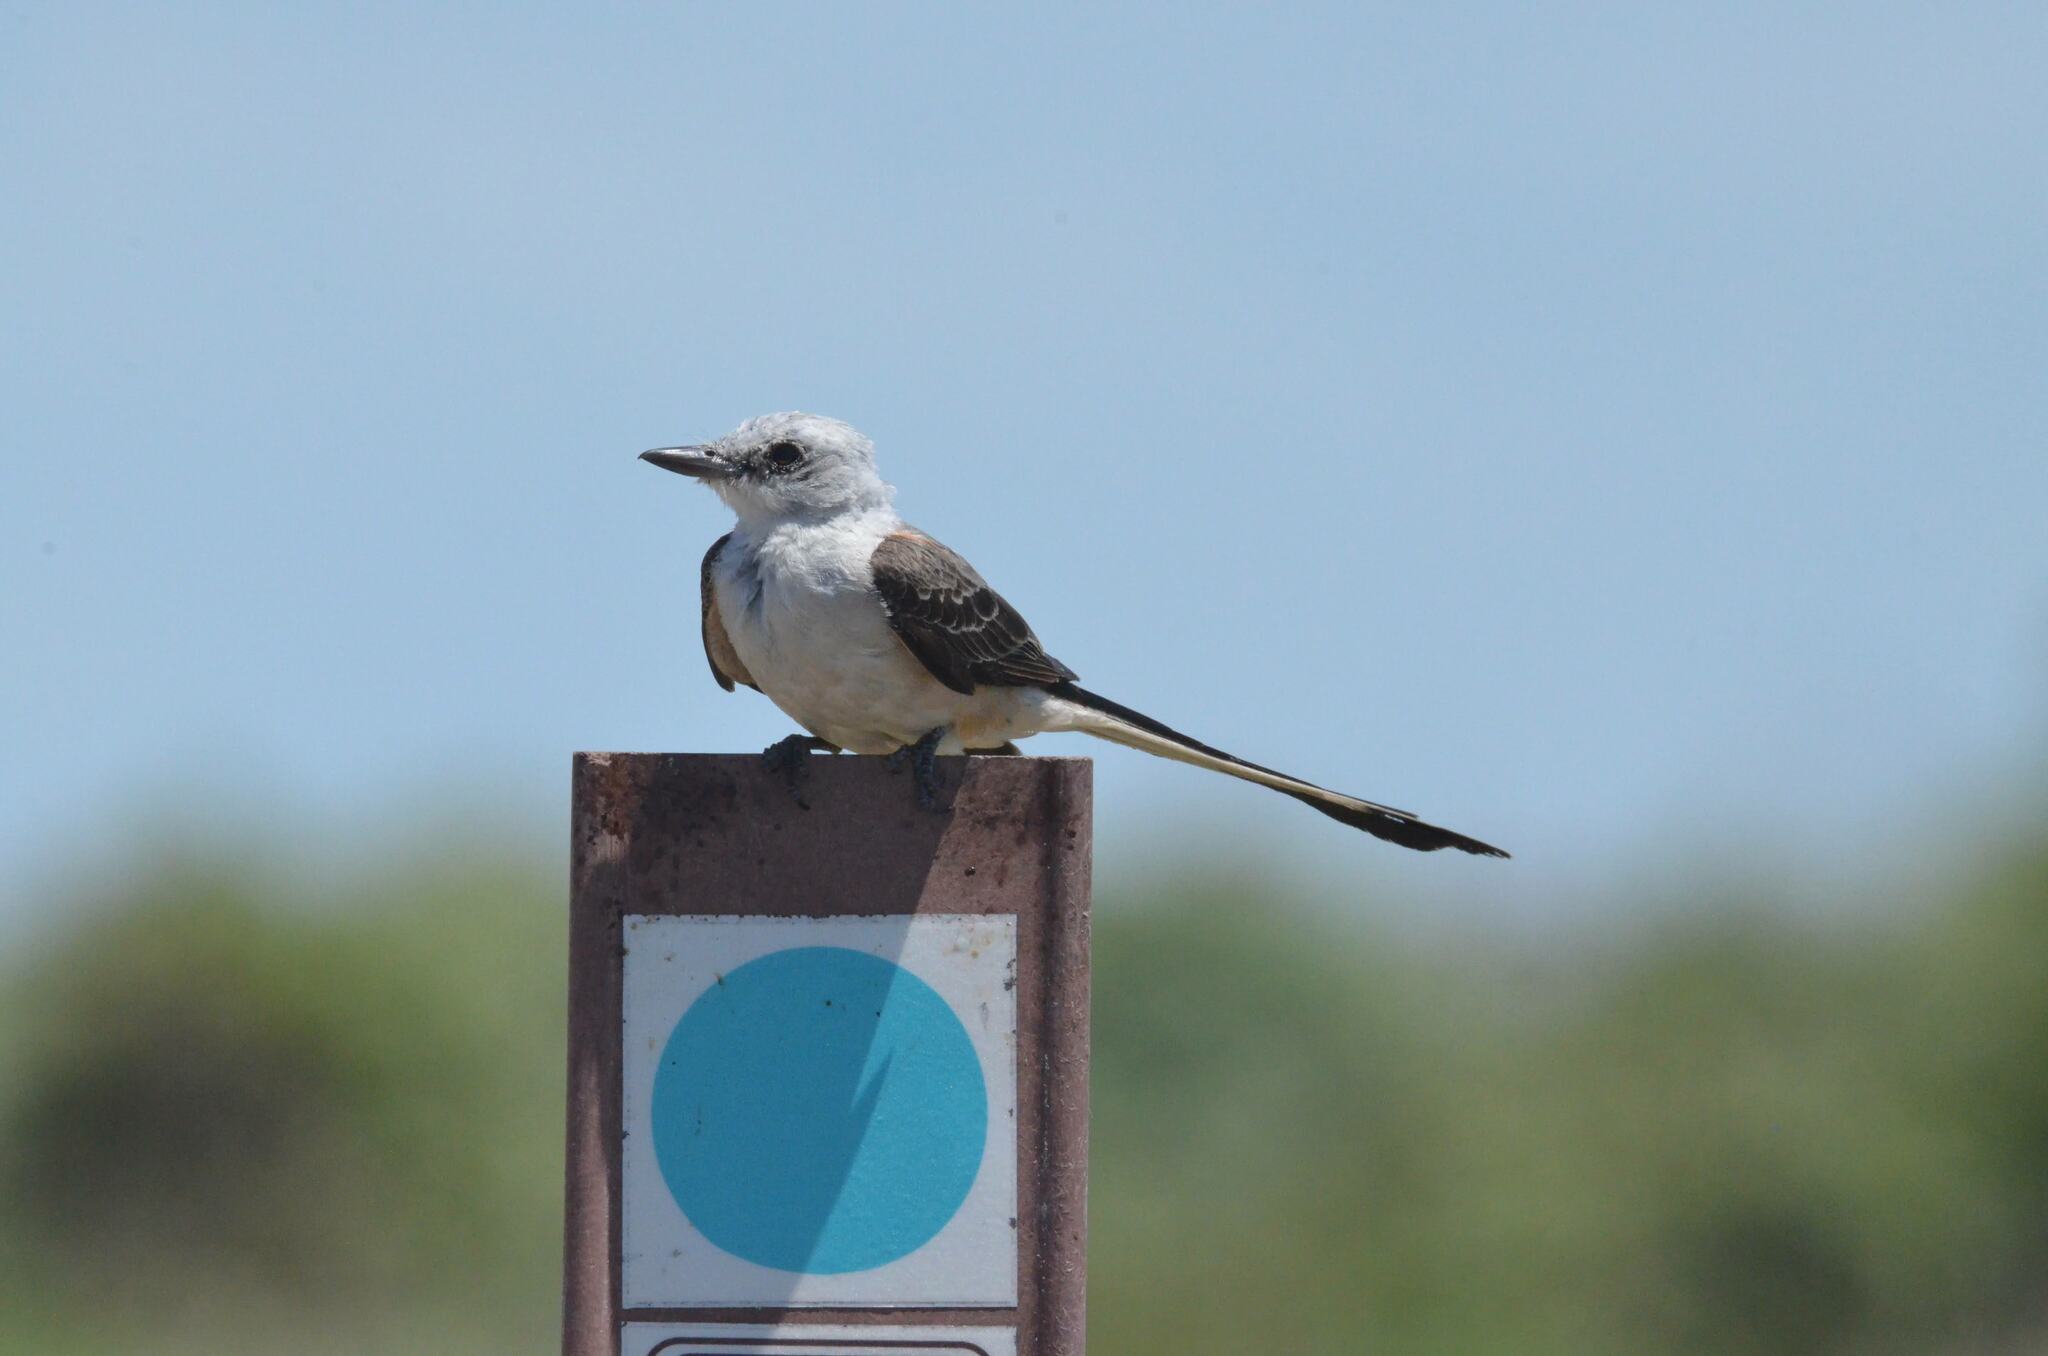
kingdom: Animalia
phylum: Chordata
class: Aves
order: Passeriformes
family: Tyrannidae
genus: Tyrannus
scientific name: Tyrannus forficatus
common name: Scissor-tailed flycatcher
